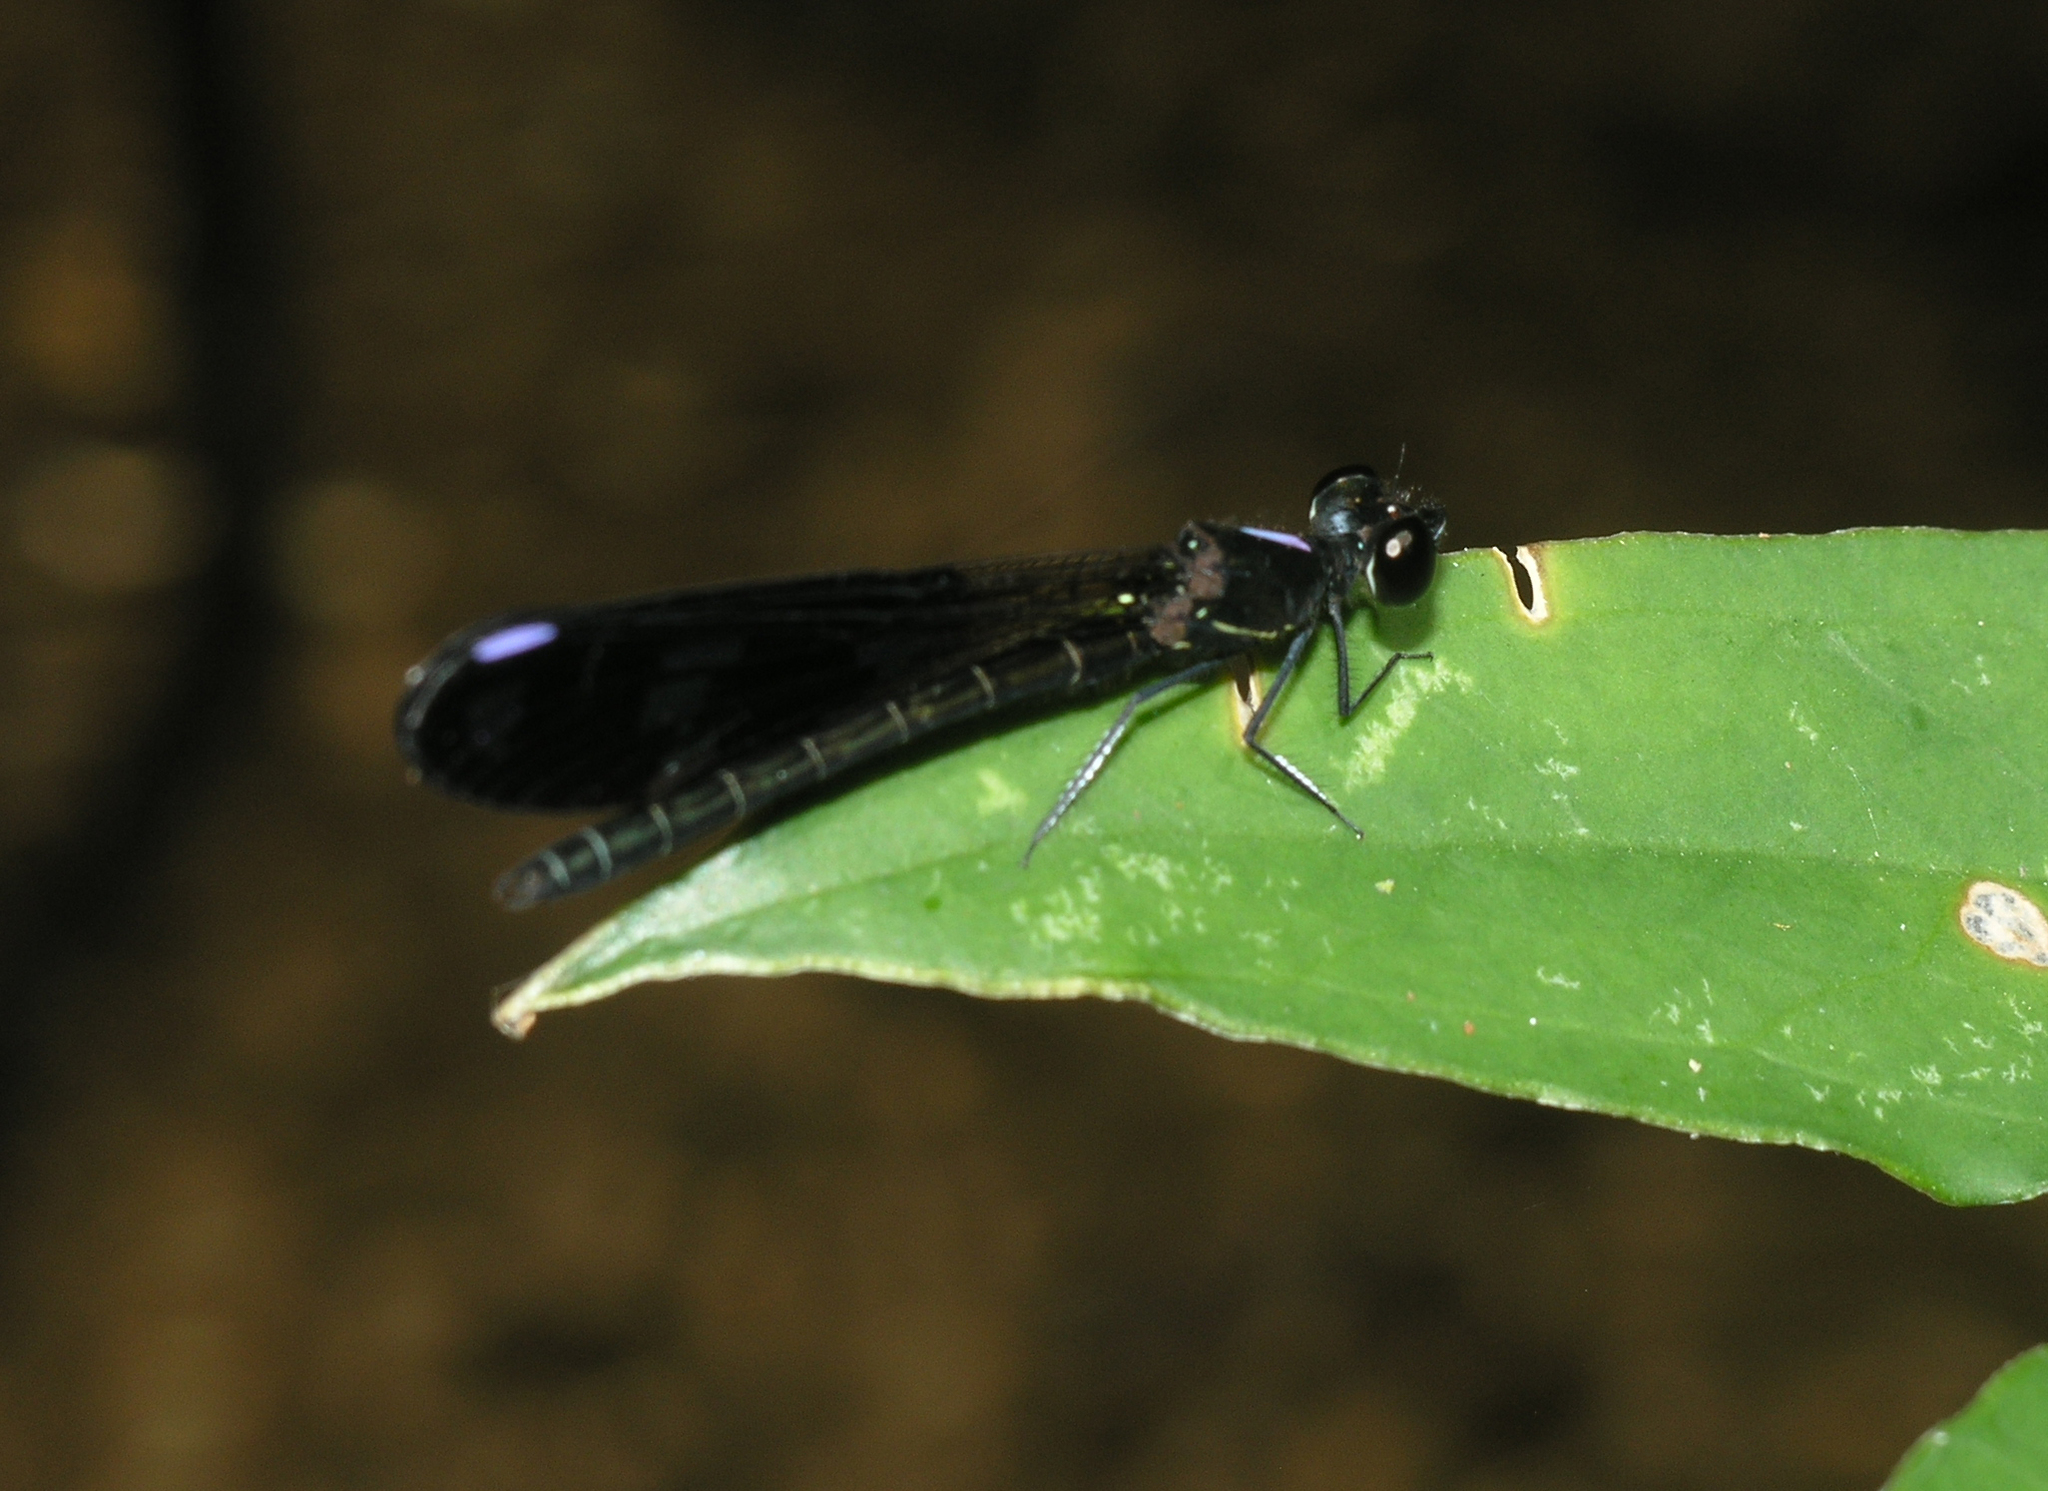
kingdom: Animalia
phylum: Arthropoda
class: Insecta
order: Odonata
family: Chlorocyphidae
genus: Aristocypha
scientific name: Aristocypha fenestrella
